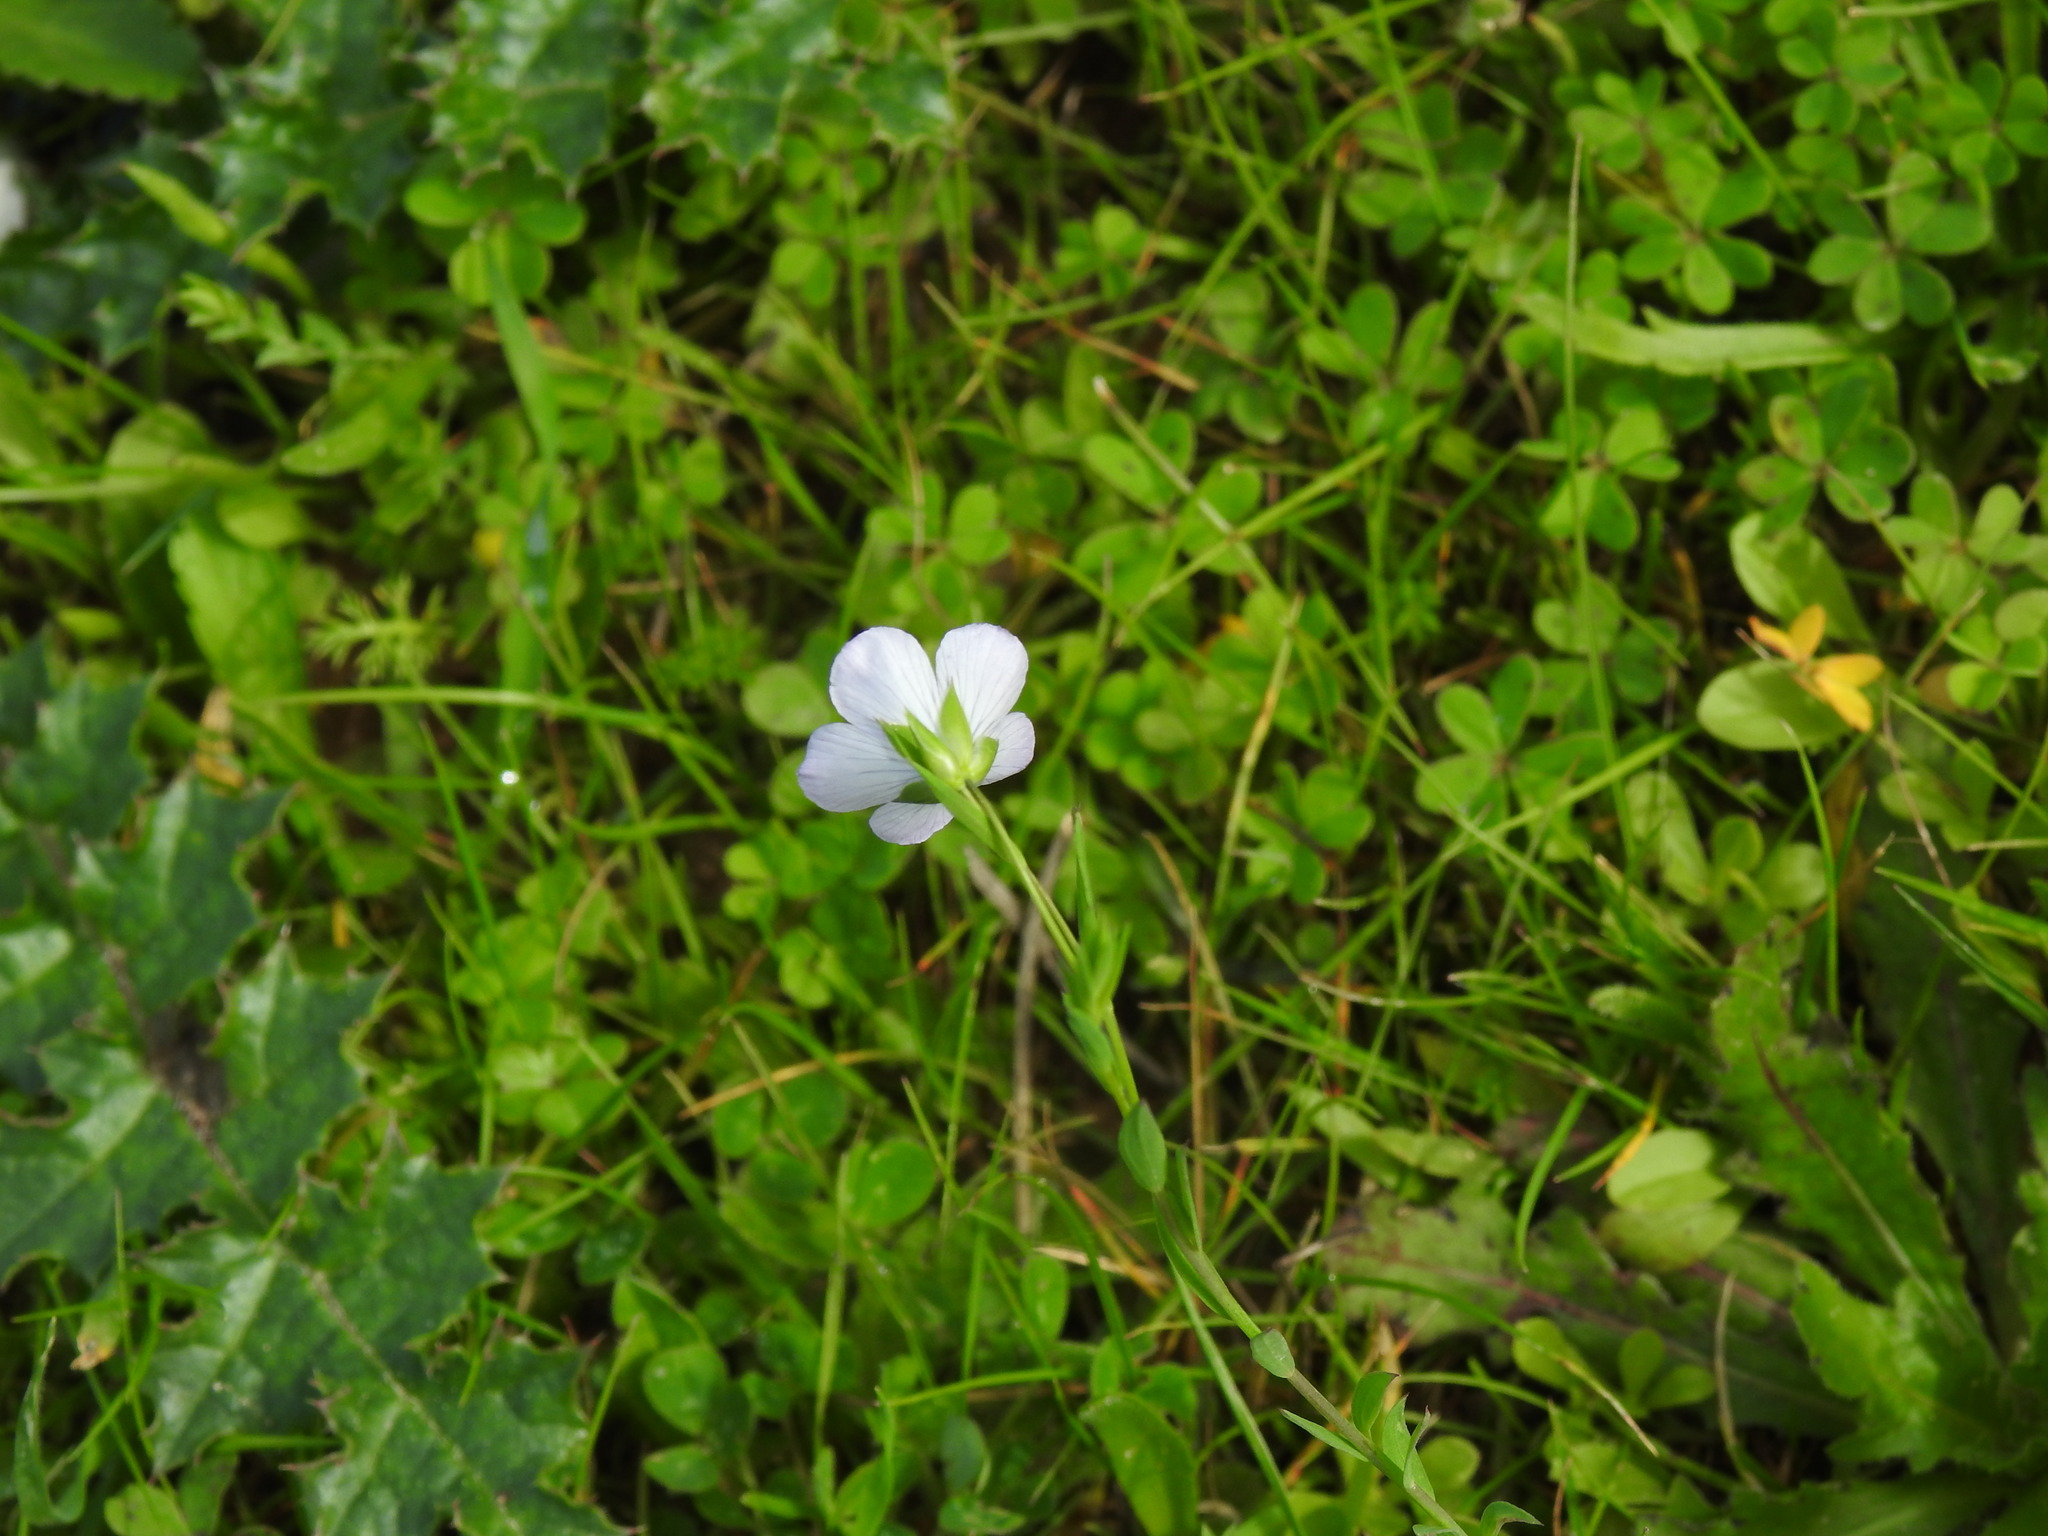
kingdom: Plantae
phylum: Tracheophyta
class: Magnoliopsida
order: Malpighiales
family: Linaceae
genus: Linum
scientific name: Linum bienne
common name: Pale flax
